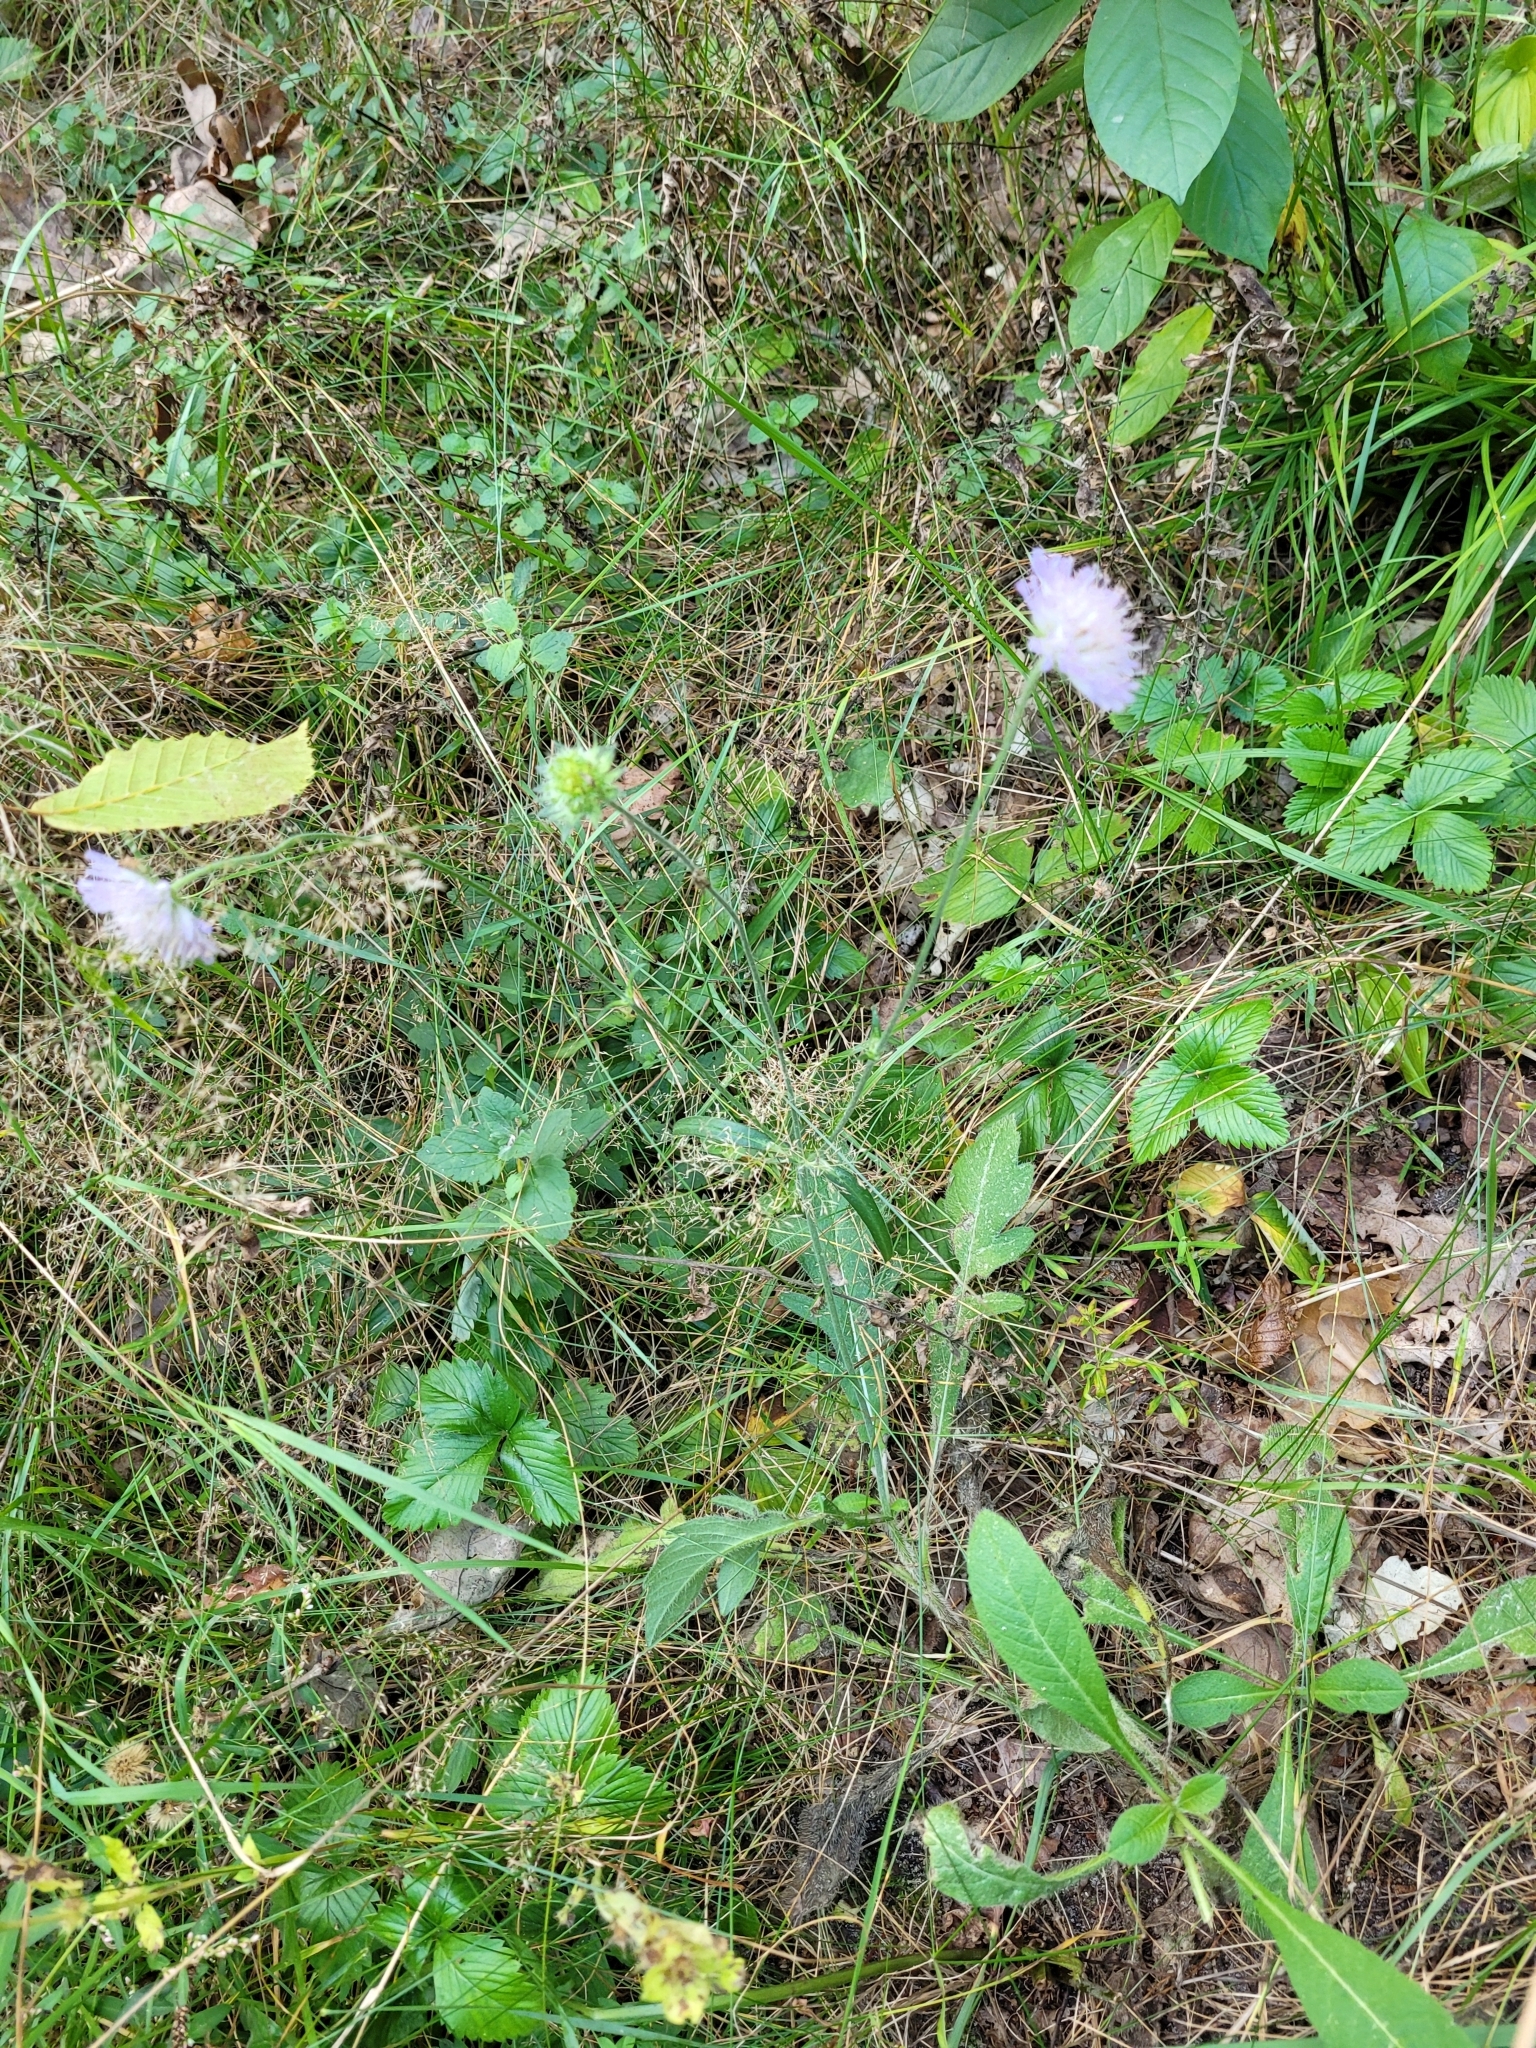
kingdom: Plantae
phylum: Tracheophyta
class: Magnoliopsida
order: Dipsacales
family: Caprifoliaceae
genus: Knautia
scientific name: Knautia arvensis
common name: Field scabiosa
